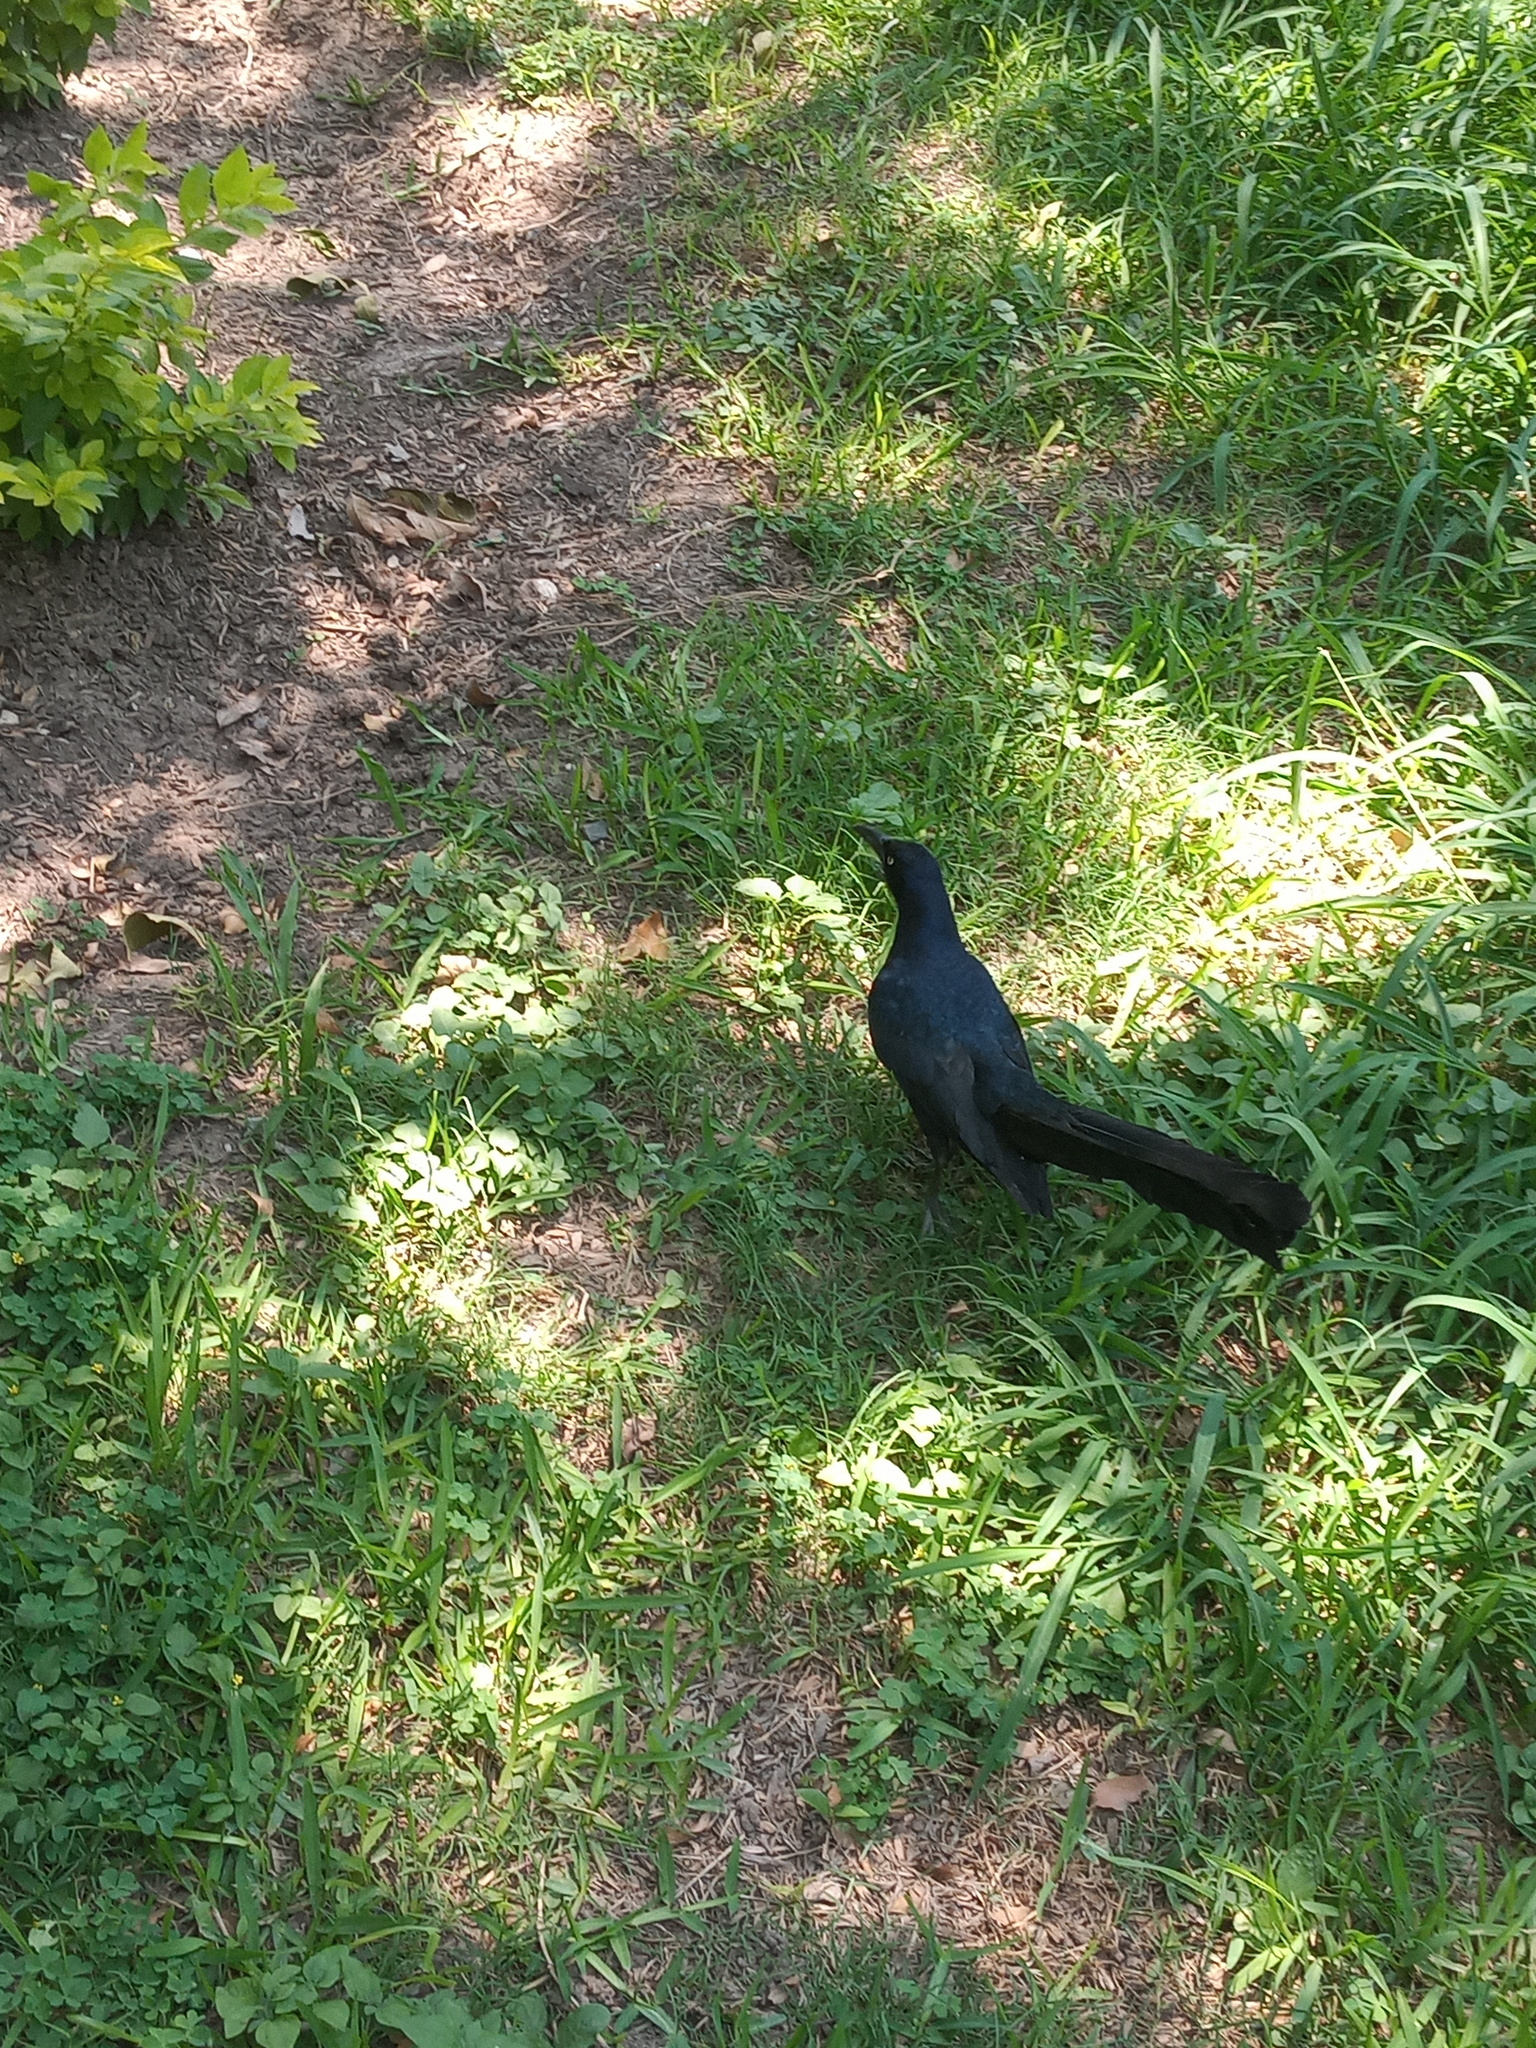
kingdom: Animalia
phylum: Chordata
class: Aves
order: Passeriformes
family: Icteridae
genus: Quiscalus
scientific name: Quiscalus mexicanus
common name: Great-tailed grackle
